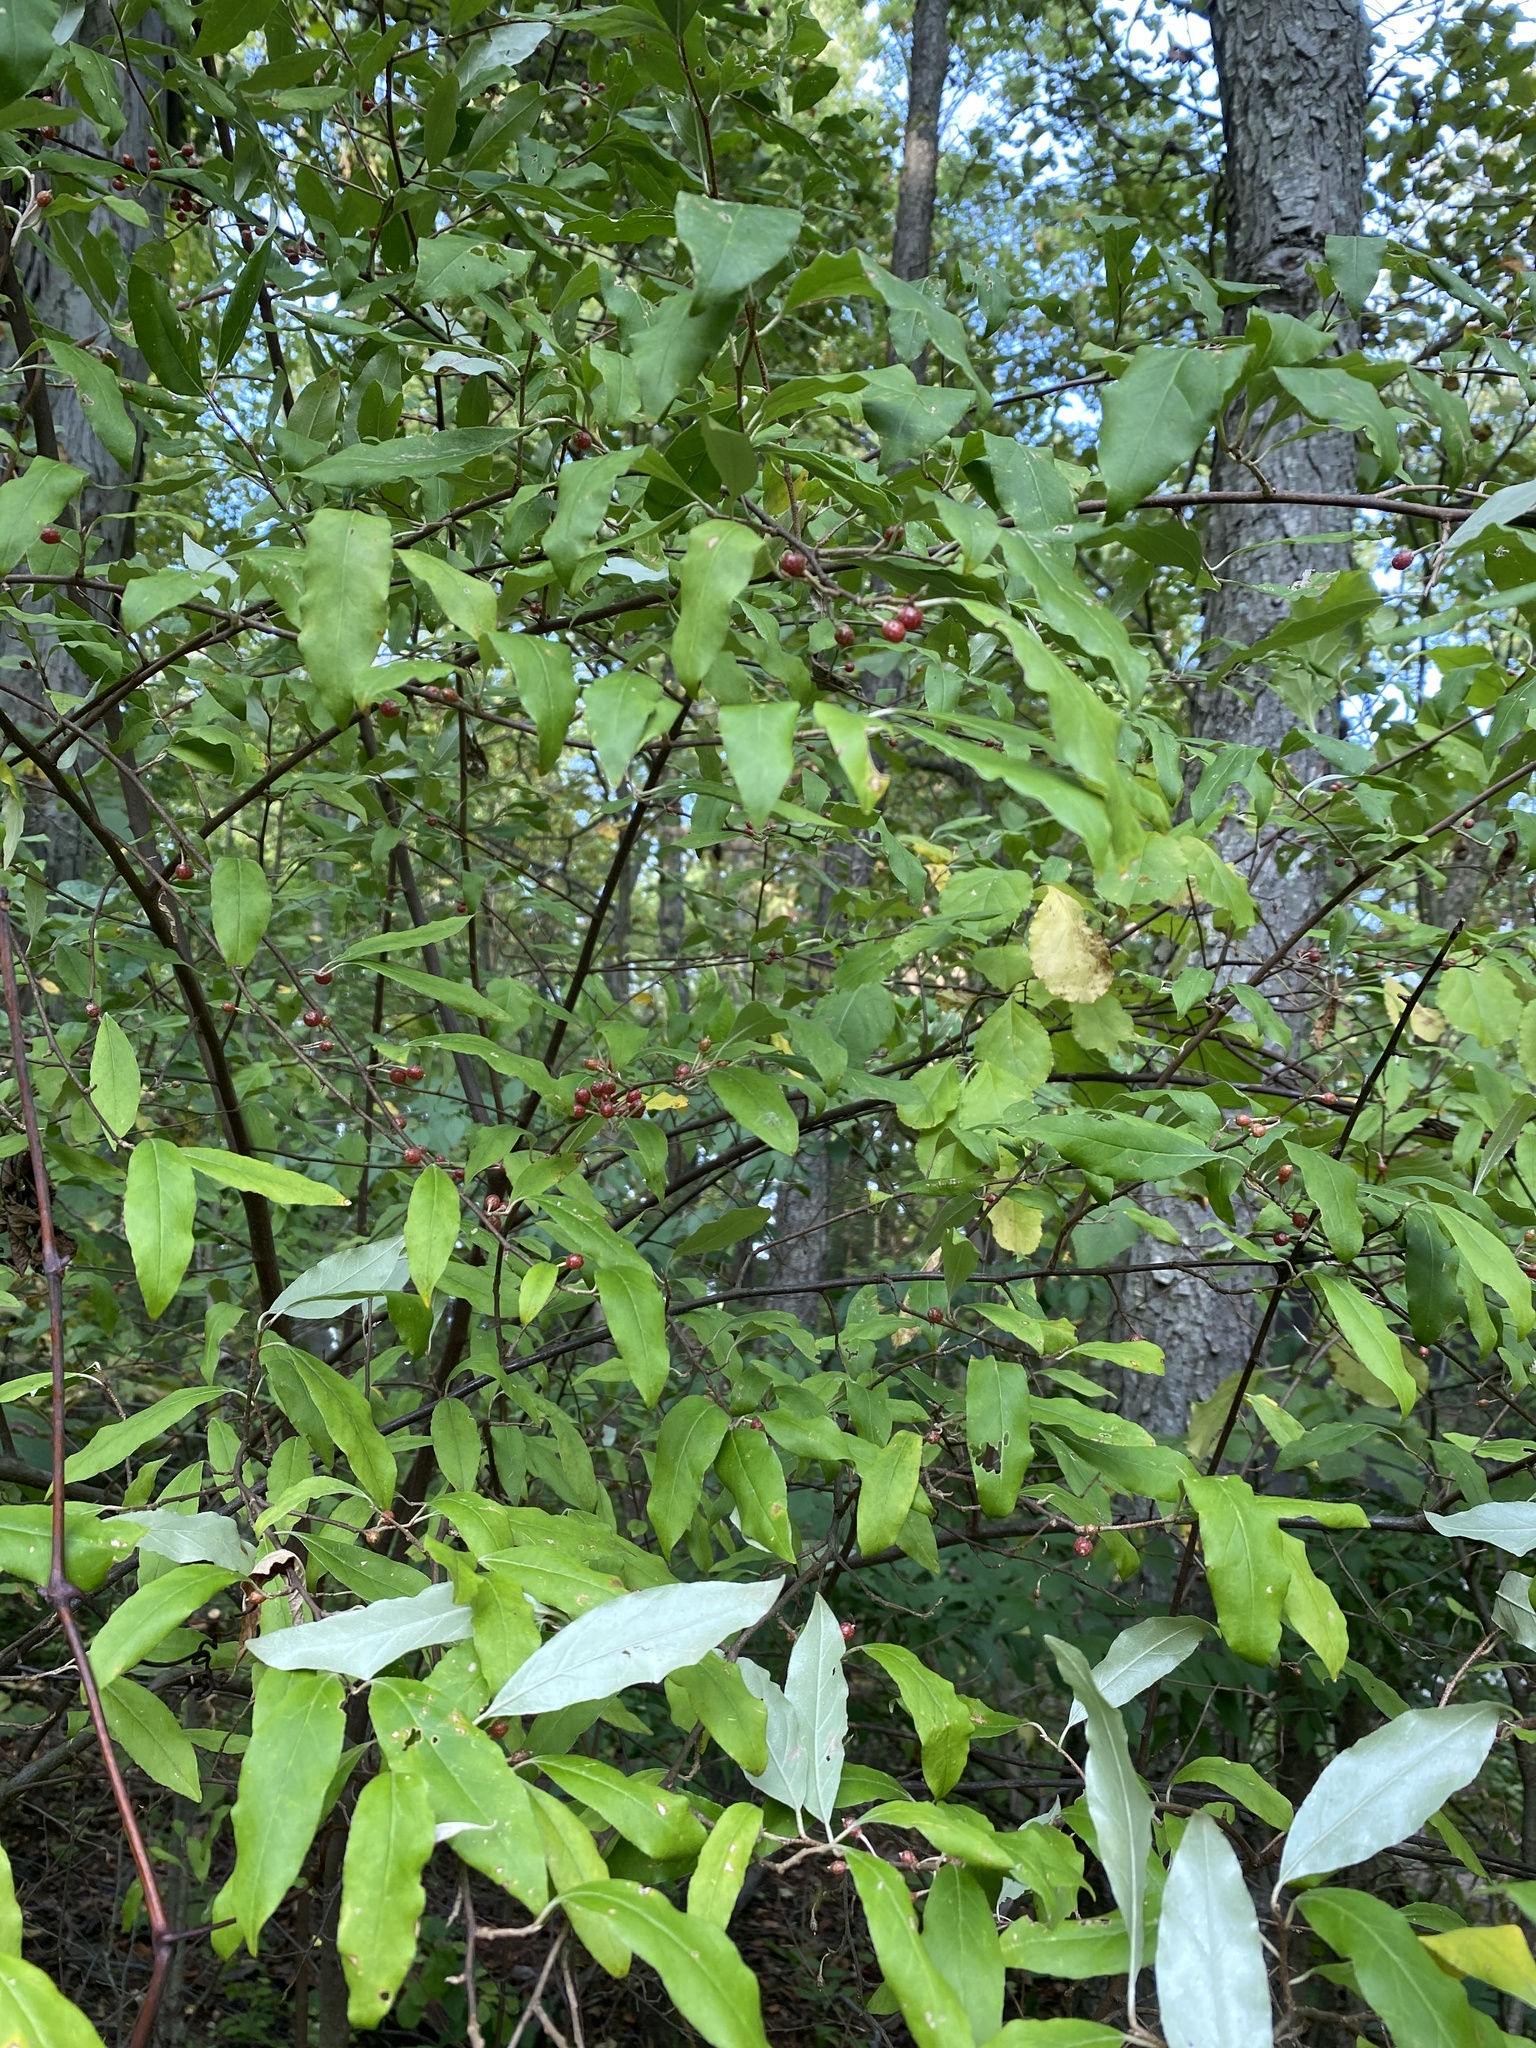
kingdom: Plantae
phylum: Tracheophyta
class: Magnoliopsida
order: Rosales
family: Elaeagnaceae
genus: Elaeagnus
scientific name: Elaeagnus umbellata
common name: Autumn olive
